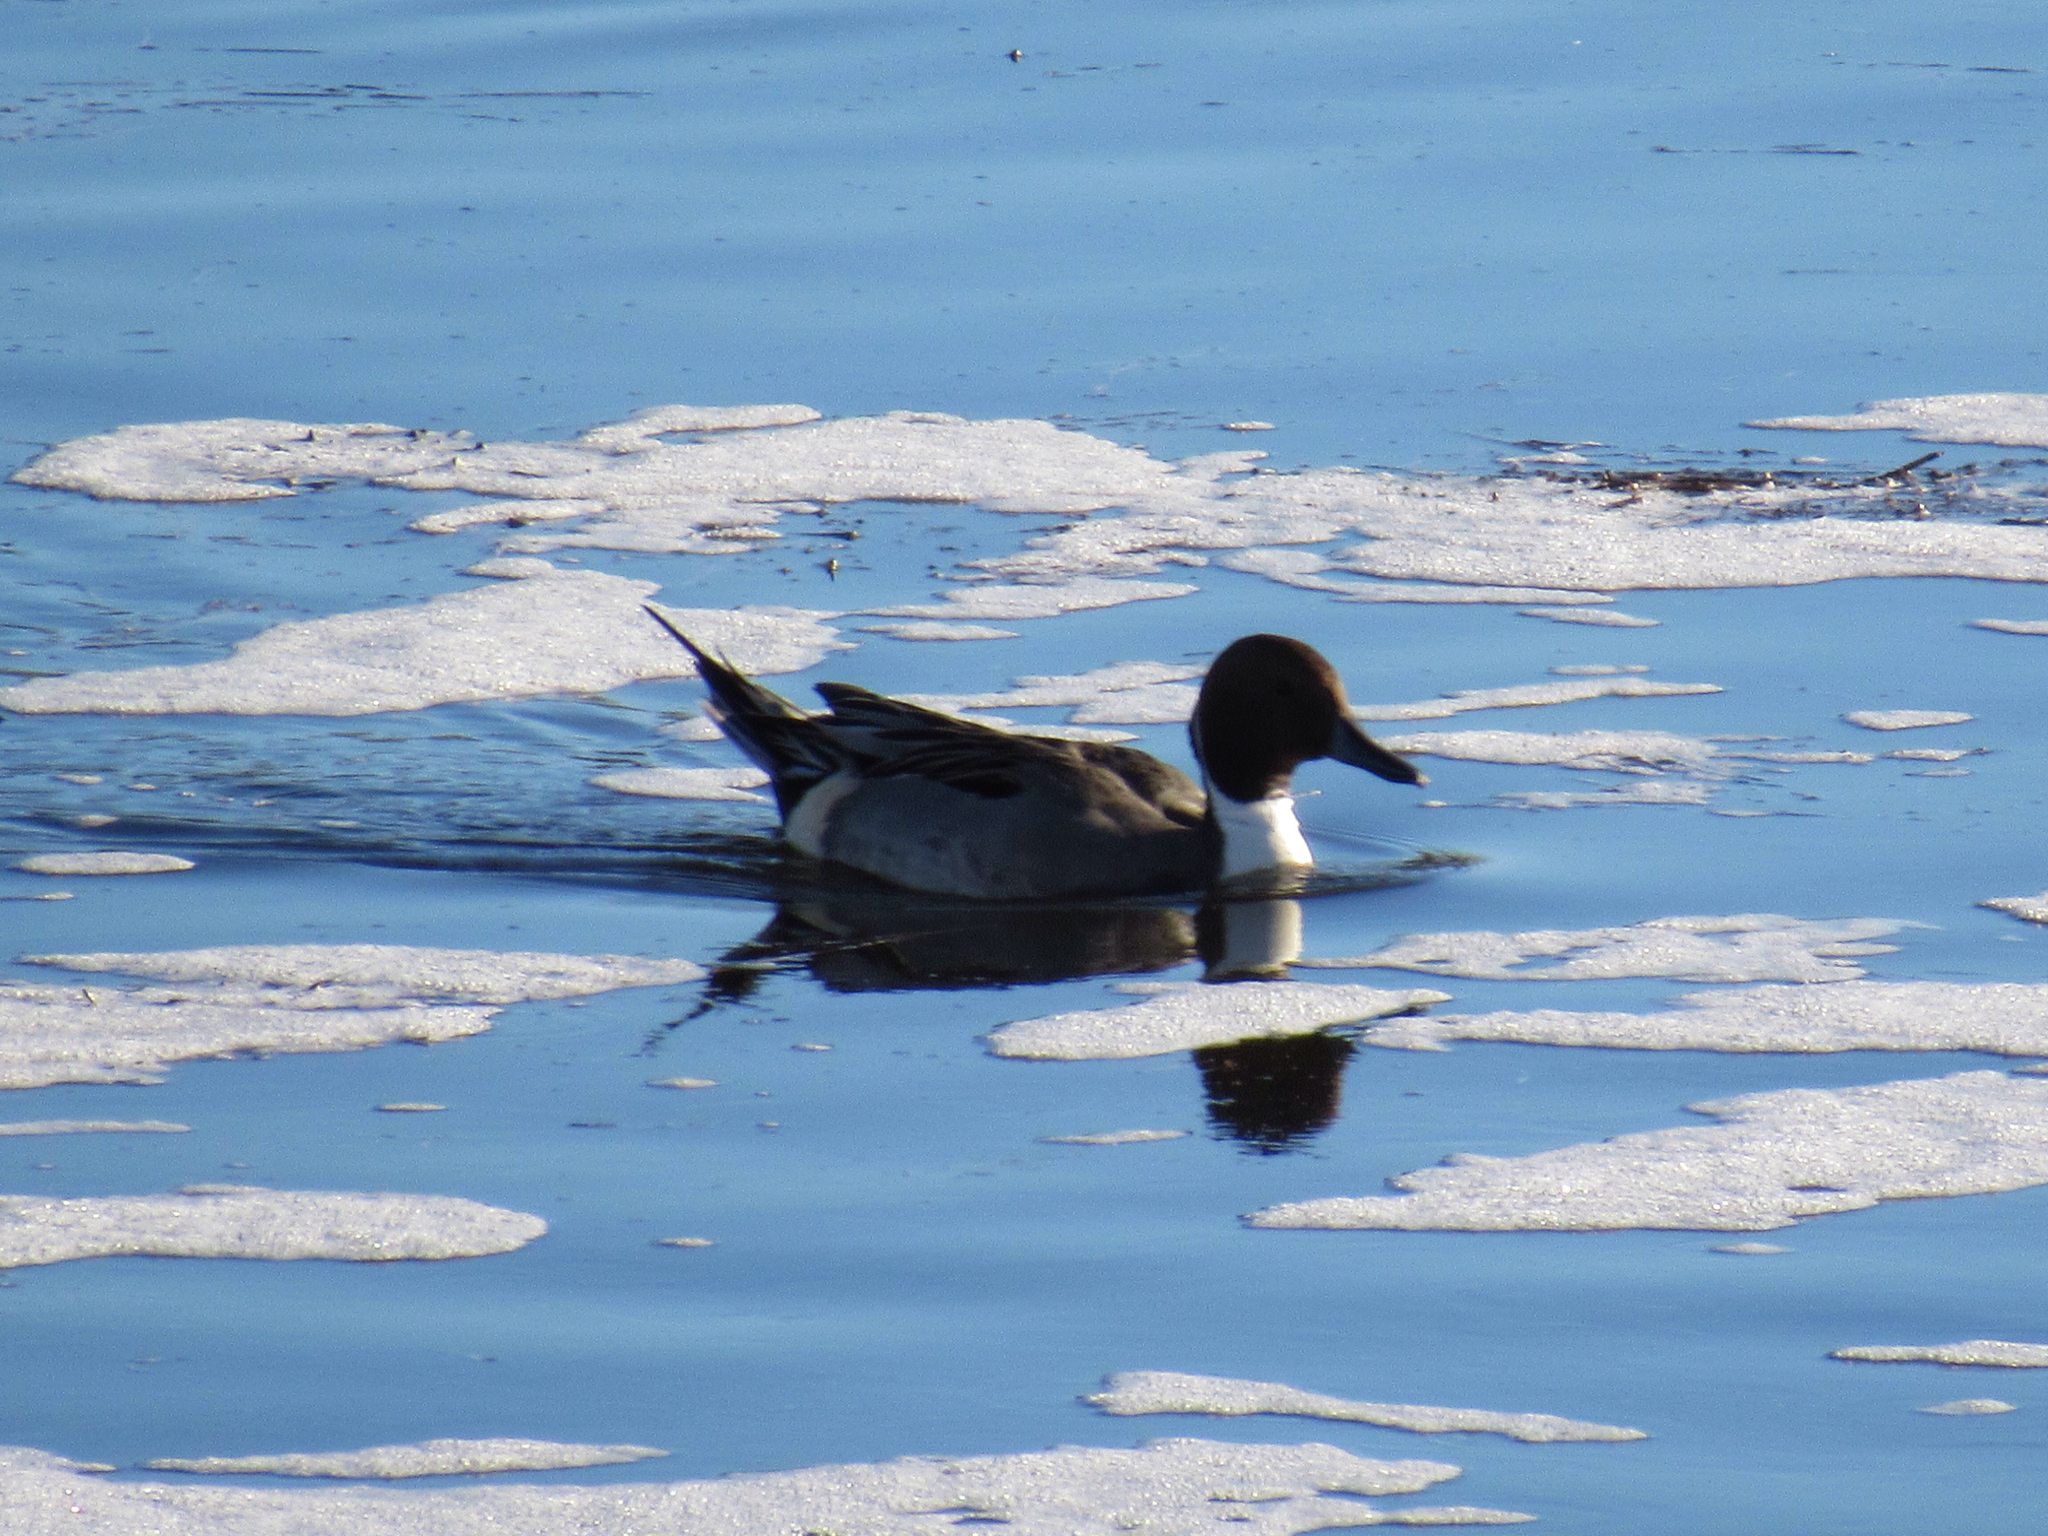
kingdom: Animalia
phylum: Chordata
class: Aves
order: Anseriformes
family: Anatidae
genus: Anas
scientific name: Anas acuta
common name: Northern pintail
